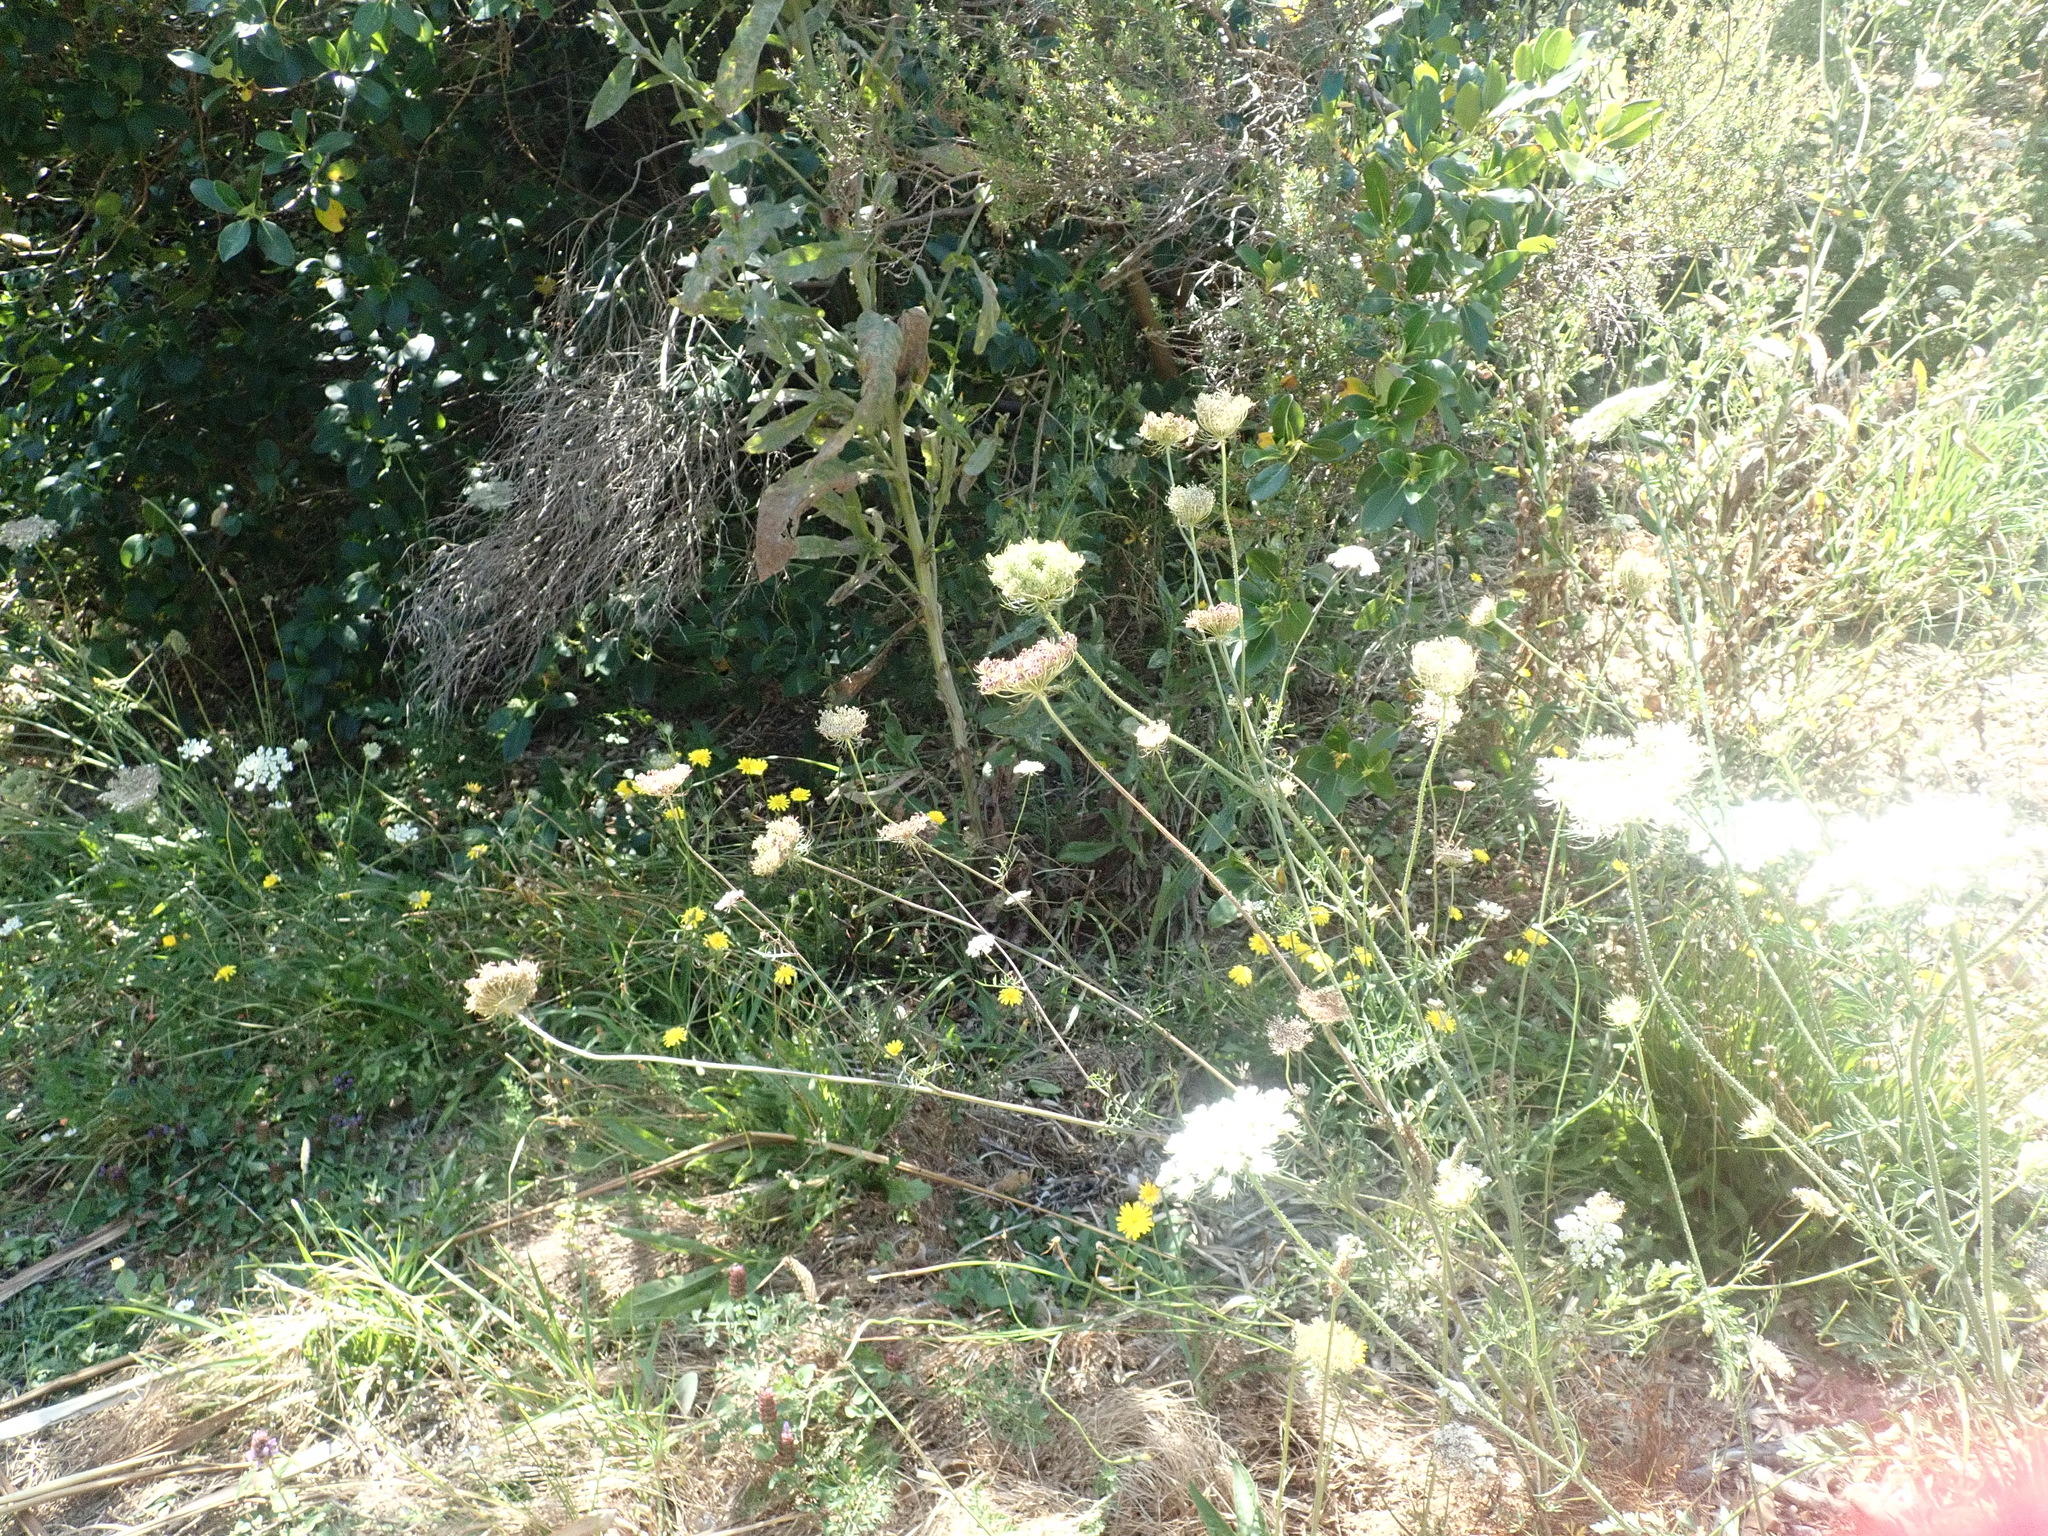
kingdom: Plantae
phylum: Tracheophyta
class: Magnoliopsida
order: Apiales
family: Apiaceae
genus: Daucus
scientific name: Daucus carota
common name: Wild carrot
